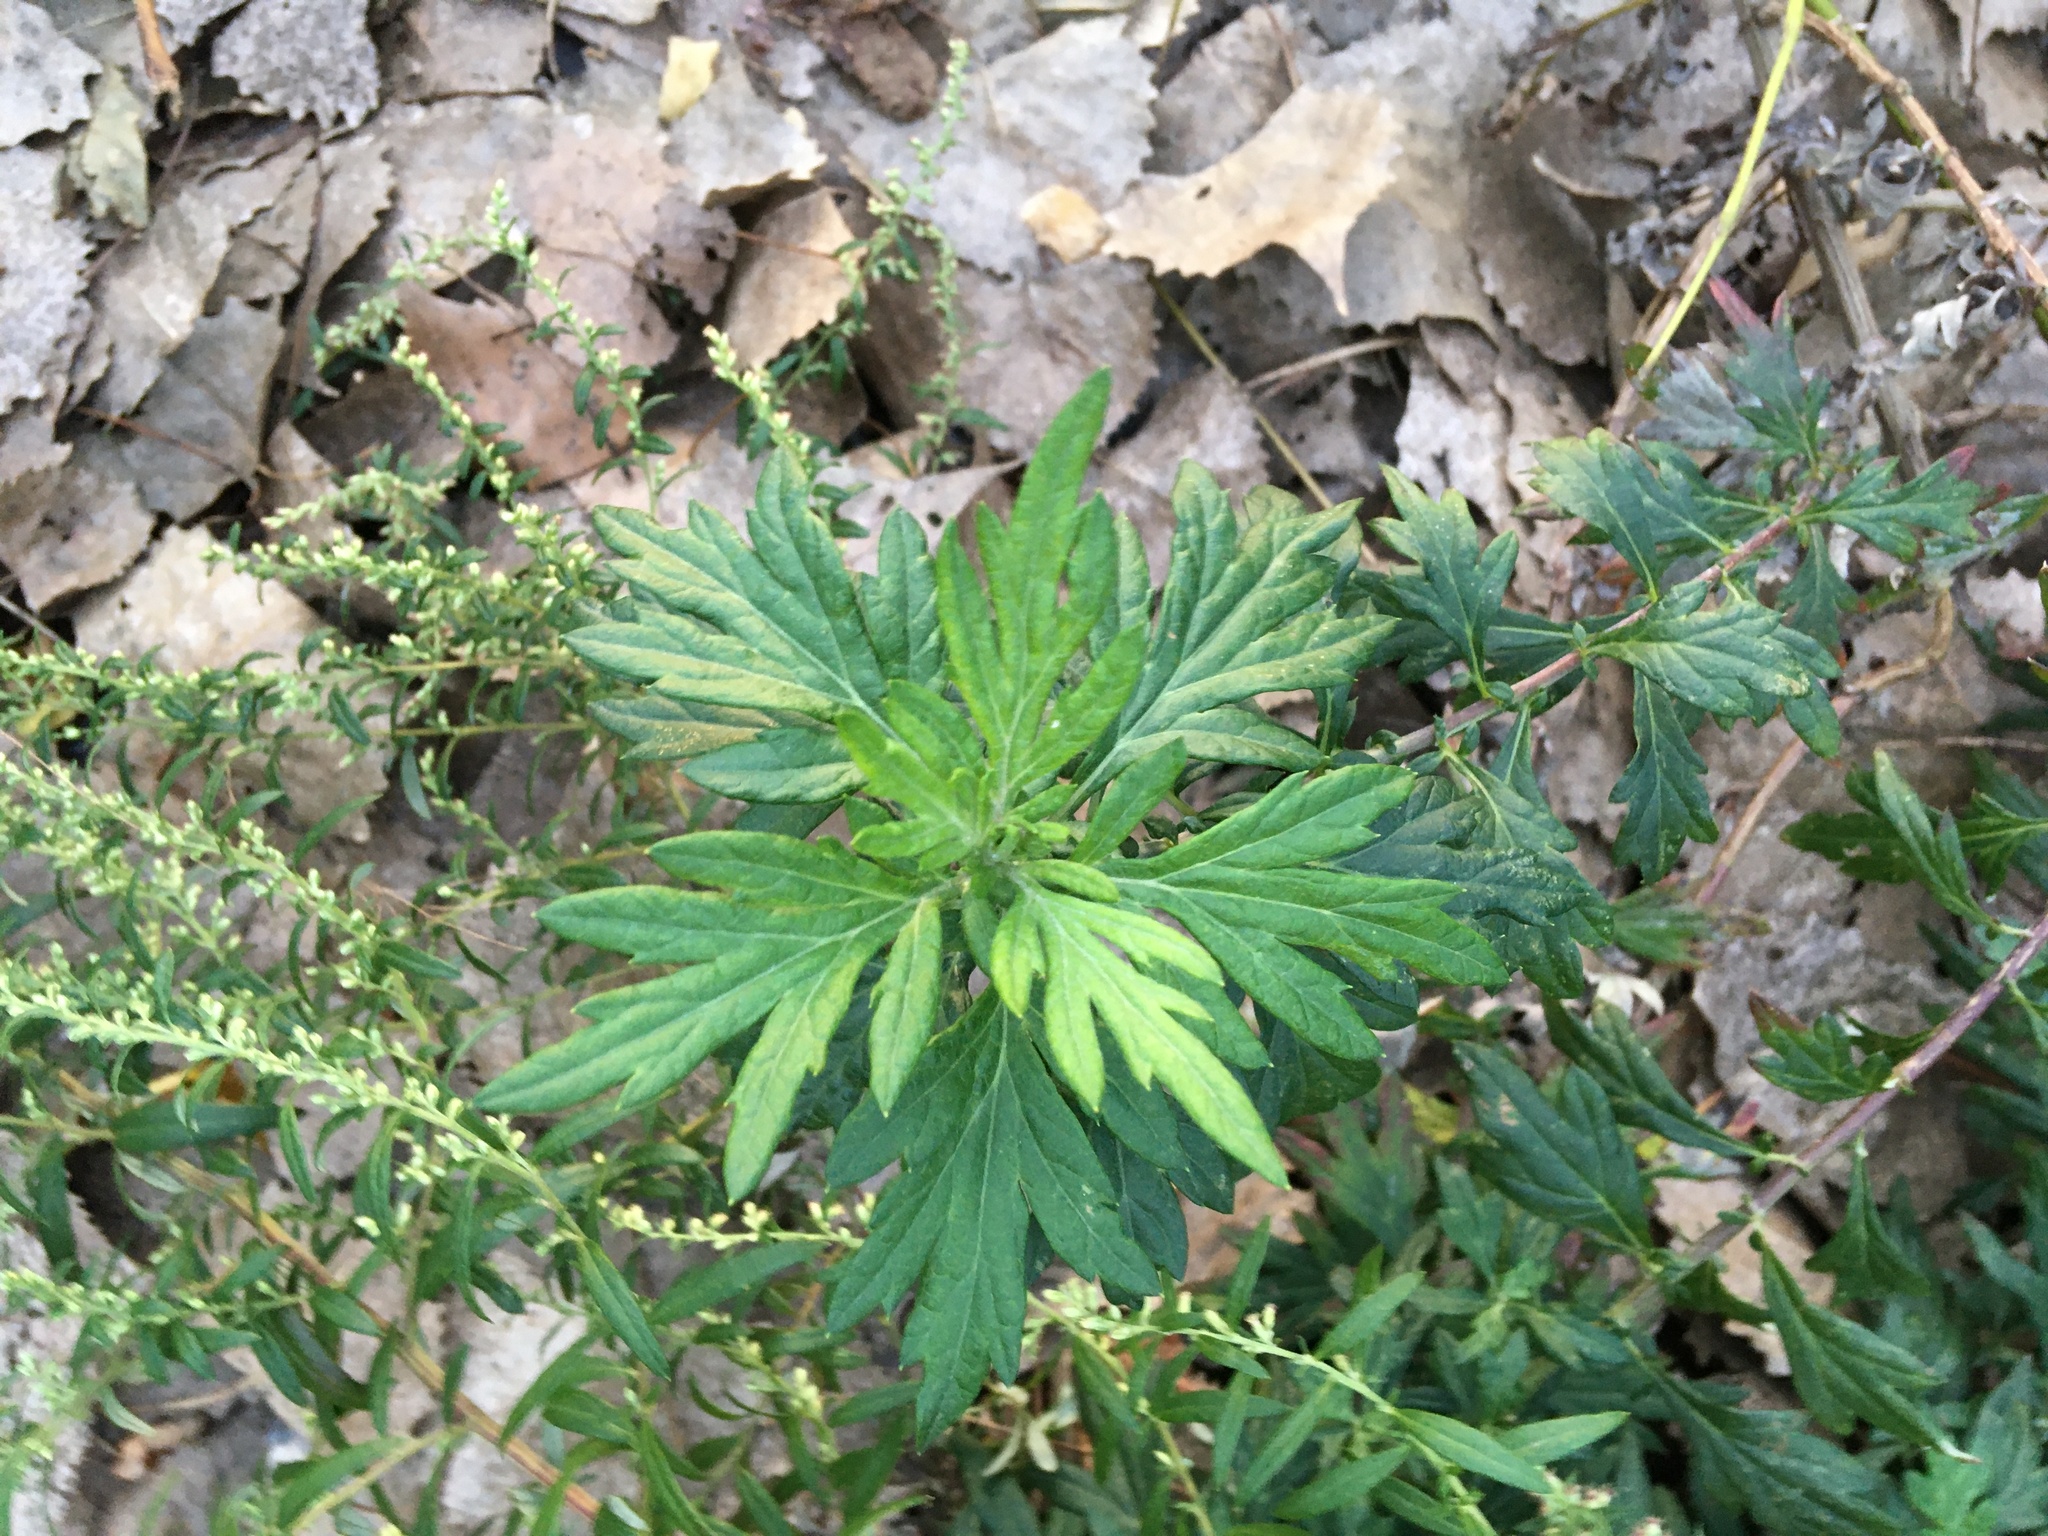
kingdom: Plantae
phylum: Tracheophyta
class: Magnoliopsida
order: Asterales
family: Asteraceae
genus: Artemisia
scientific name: Artemisia vulgaris
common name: Mugwort
